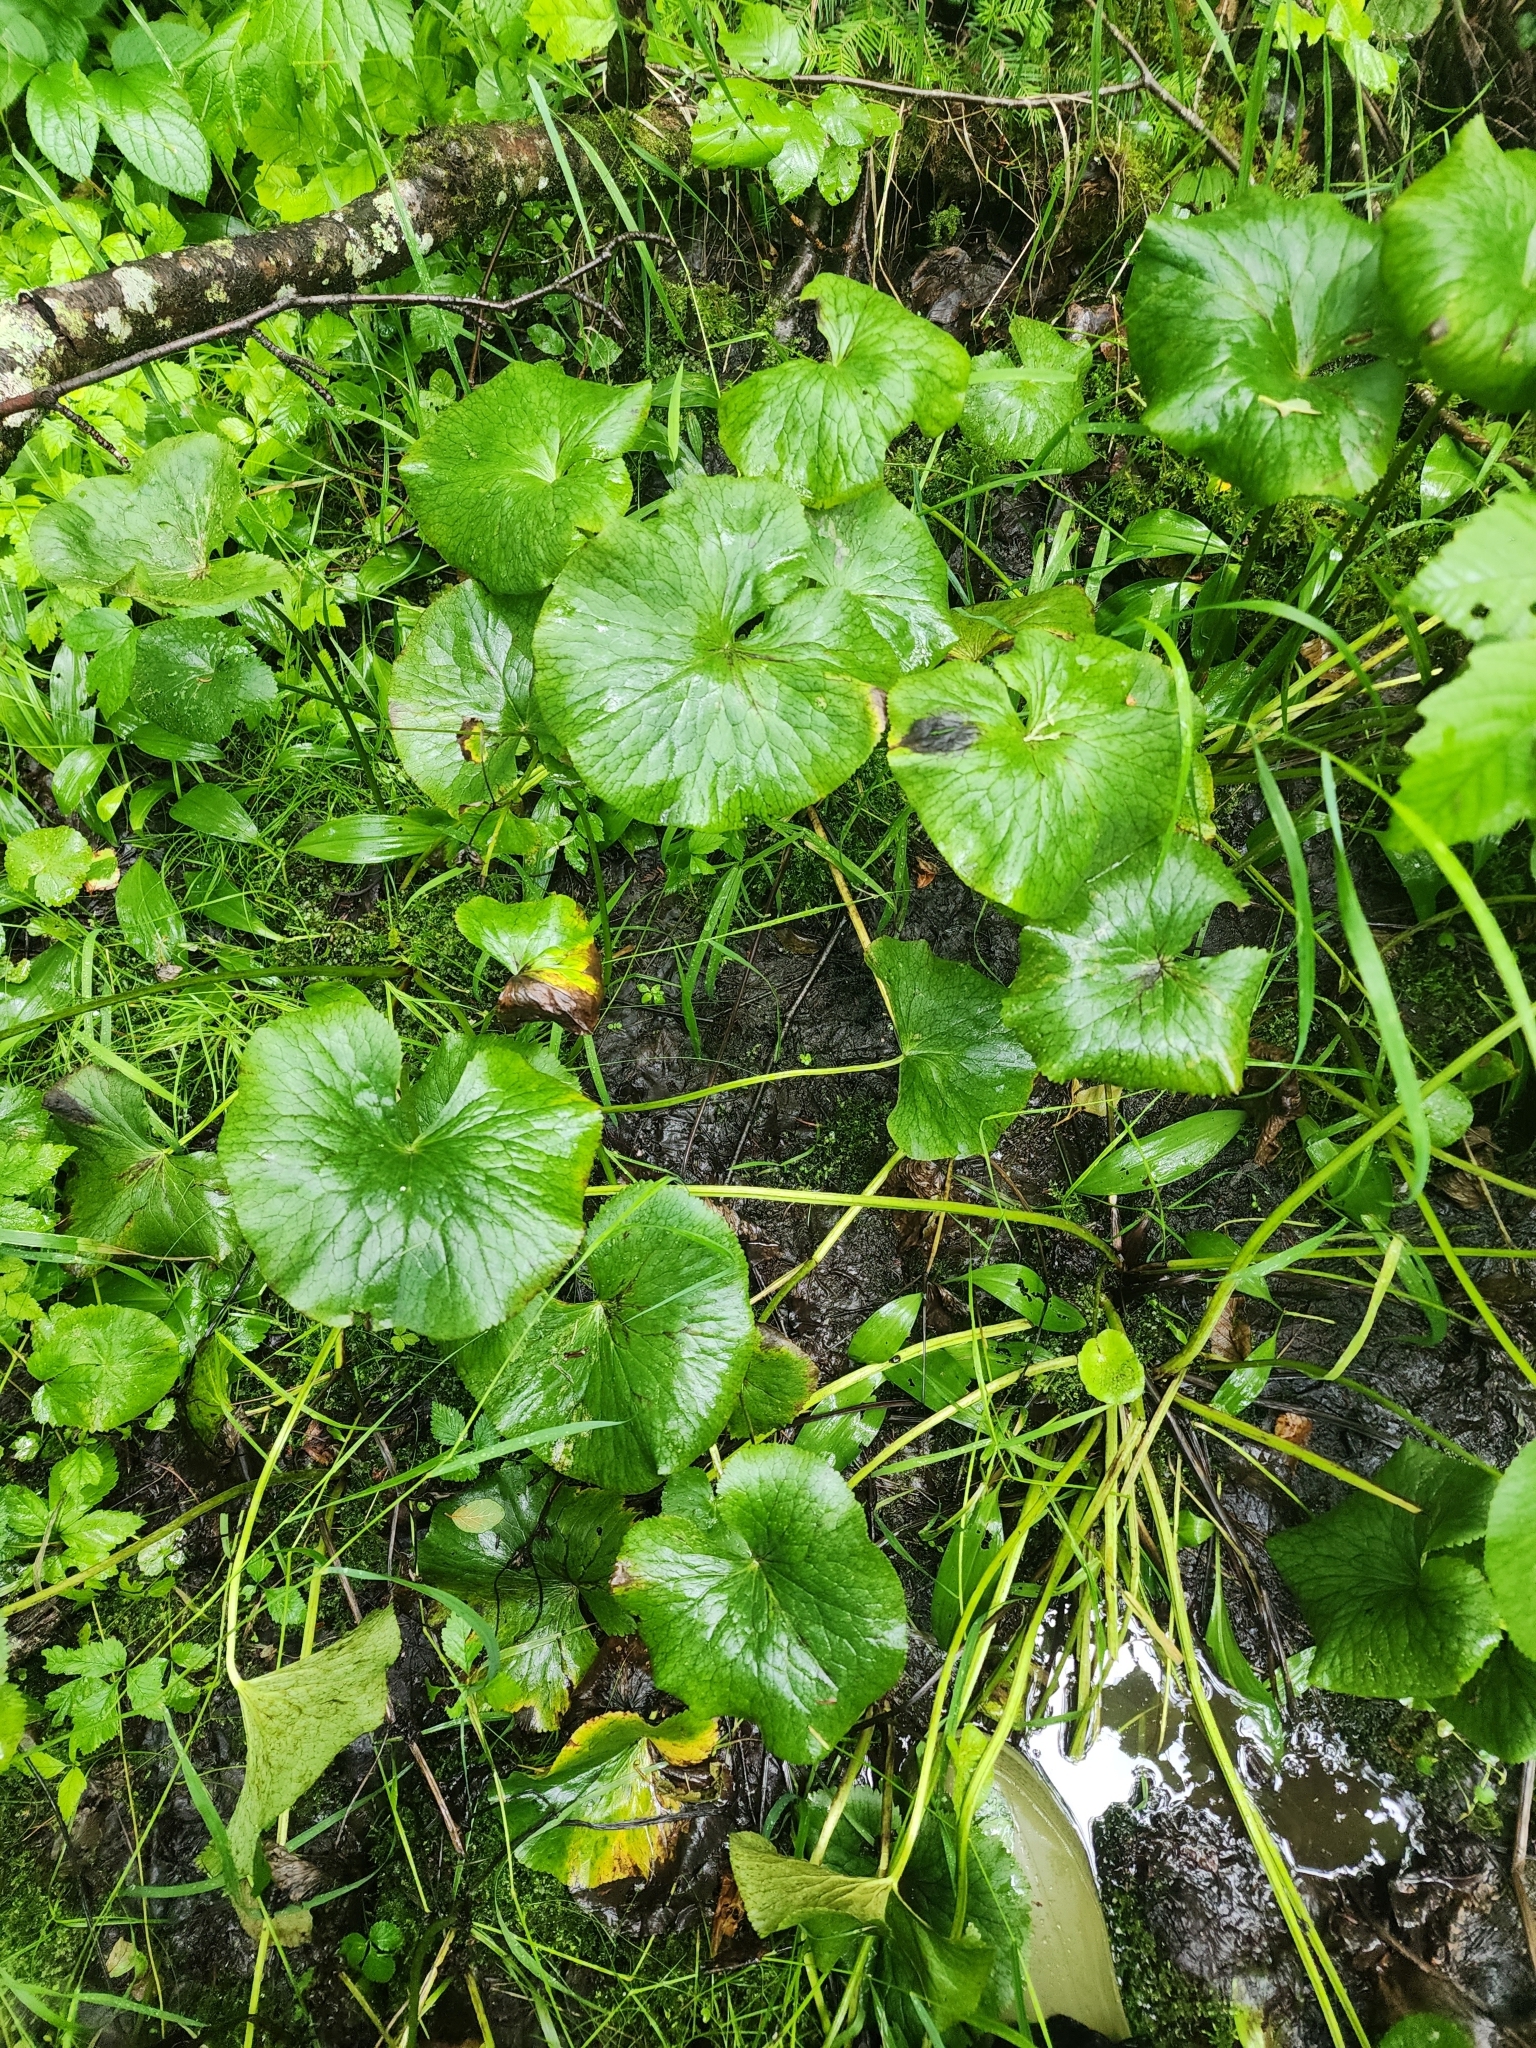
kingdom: Plantae
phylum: Tracheophyta
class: Magnoliopsida
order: Ranunculales
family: Ranunculaceae
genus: Caltha
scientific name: Caltha palustris
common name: Marsh marigold
